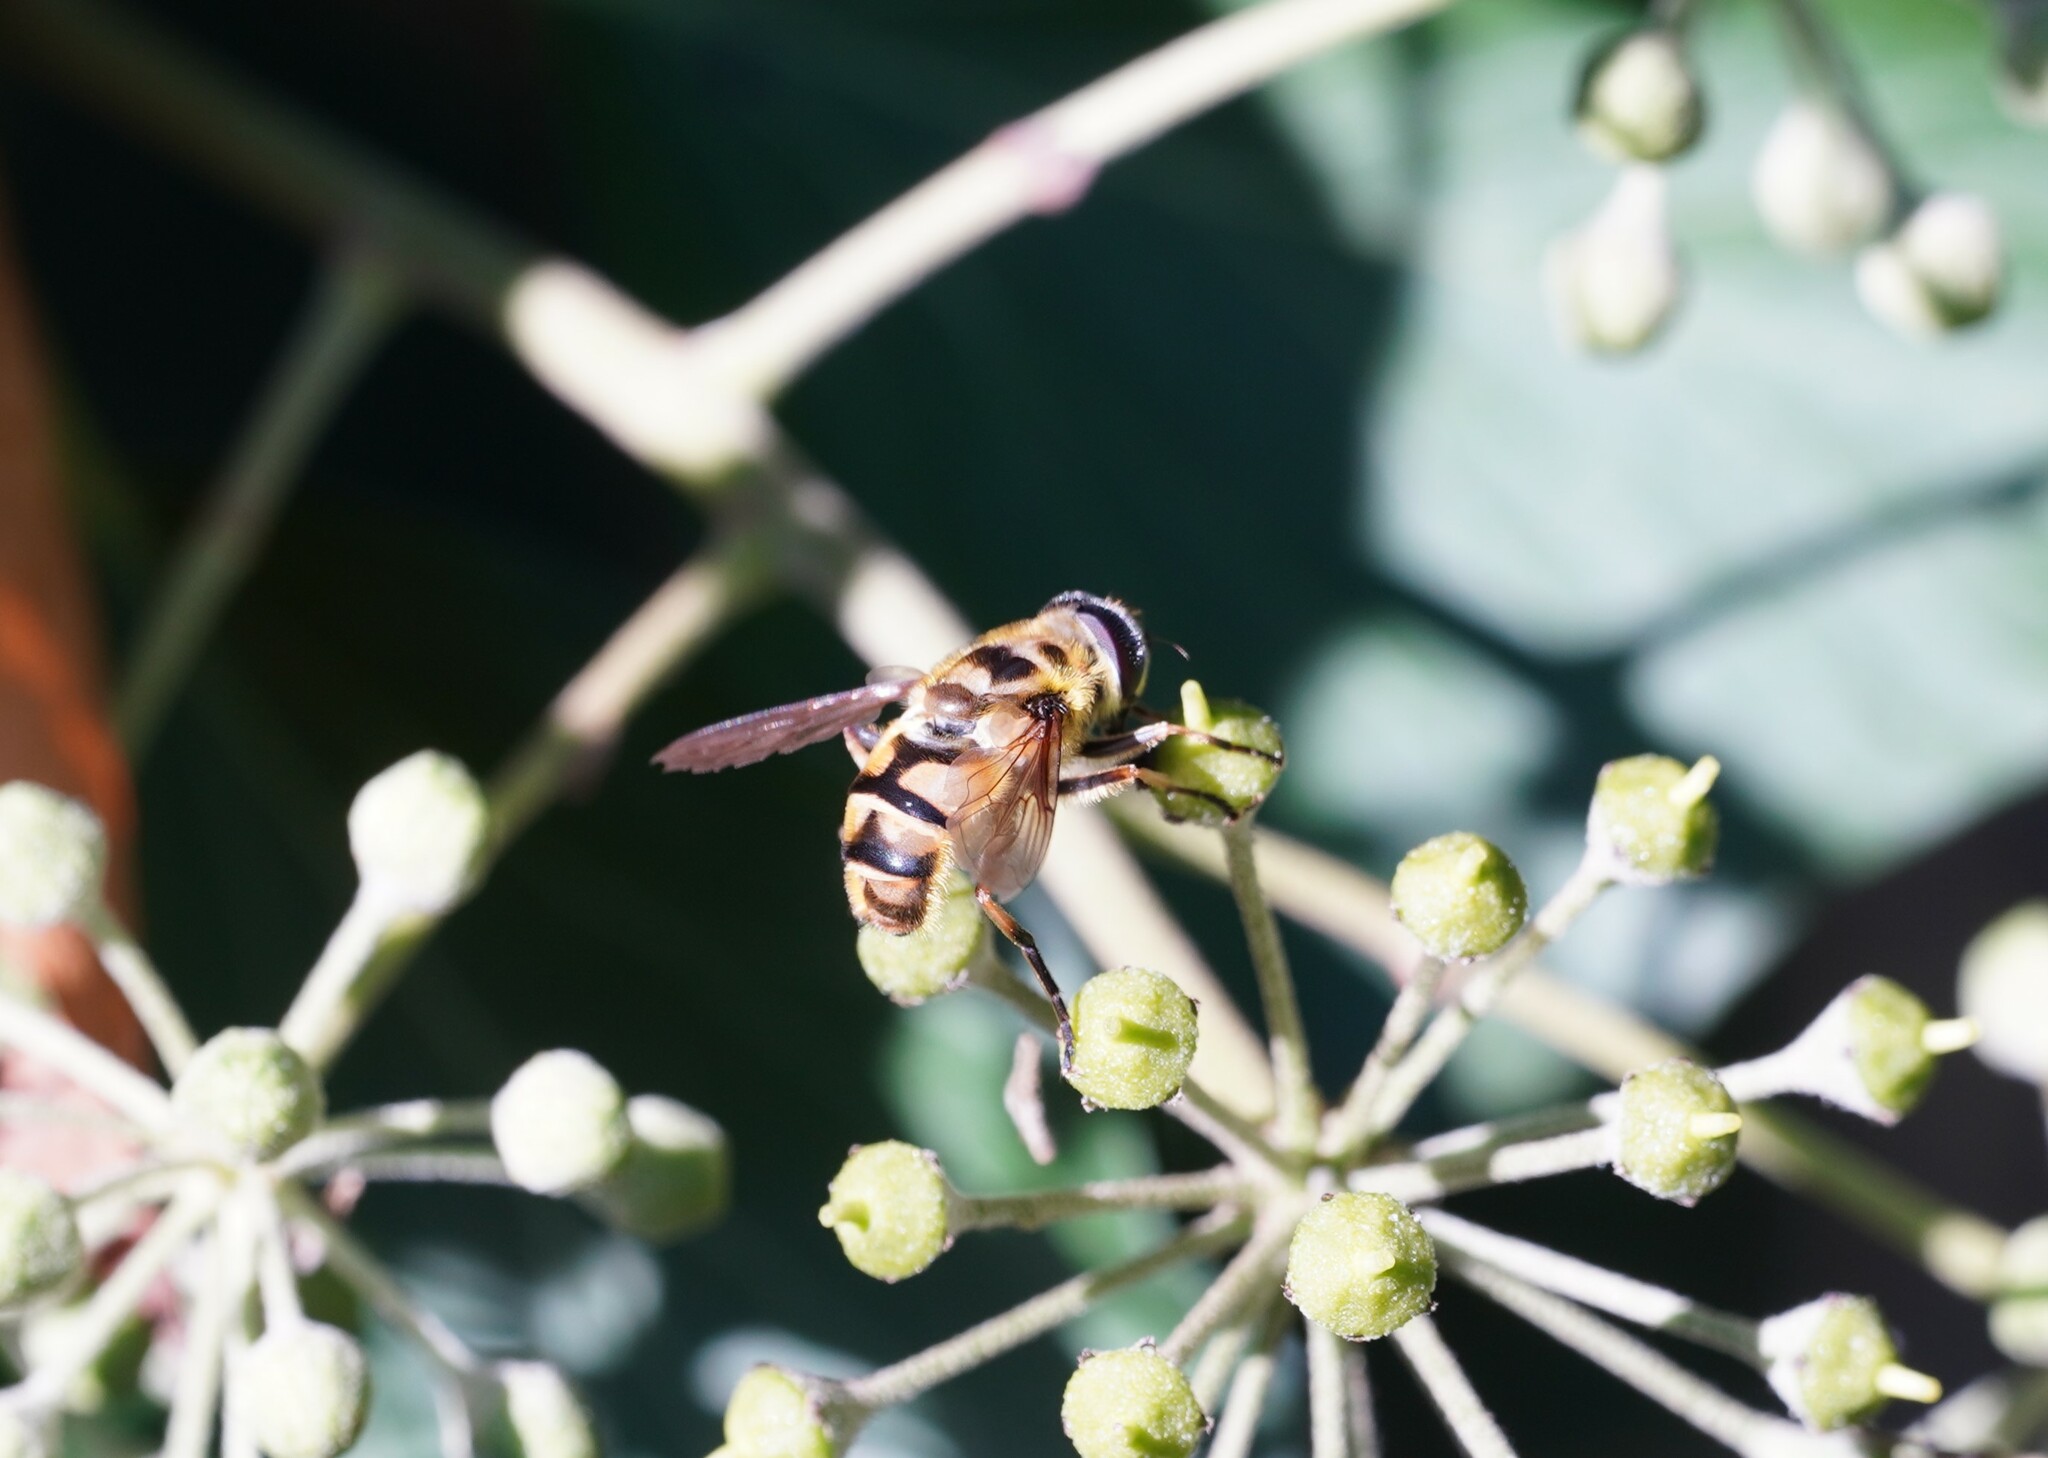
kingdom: Animalia
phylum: Arthropoda
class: Insecta
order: Diptera
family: Syrphidae
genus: Myathropa
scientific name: Myathropa florea
